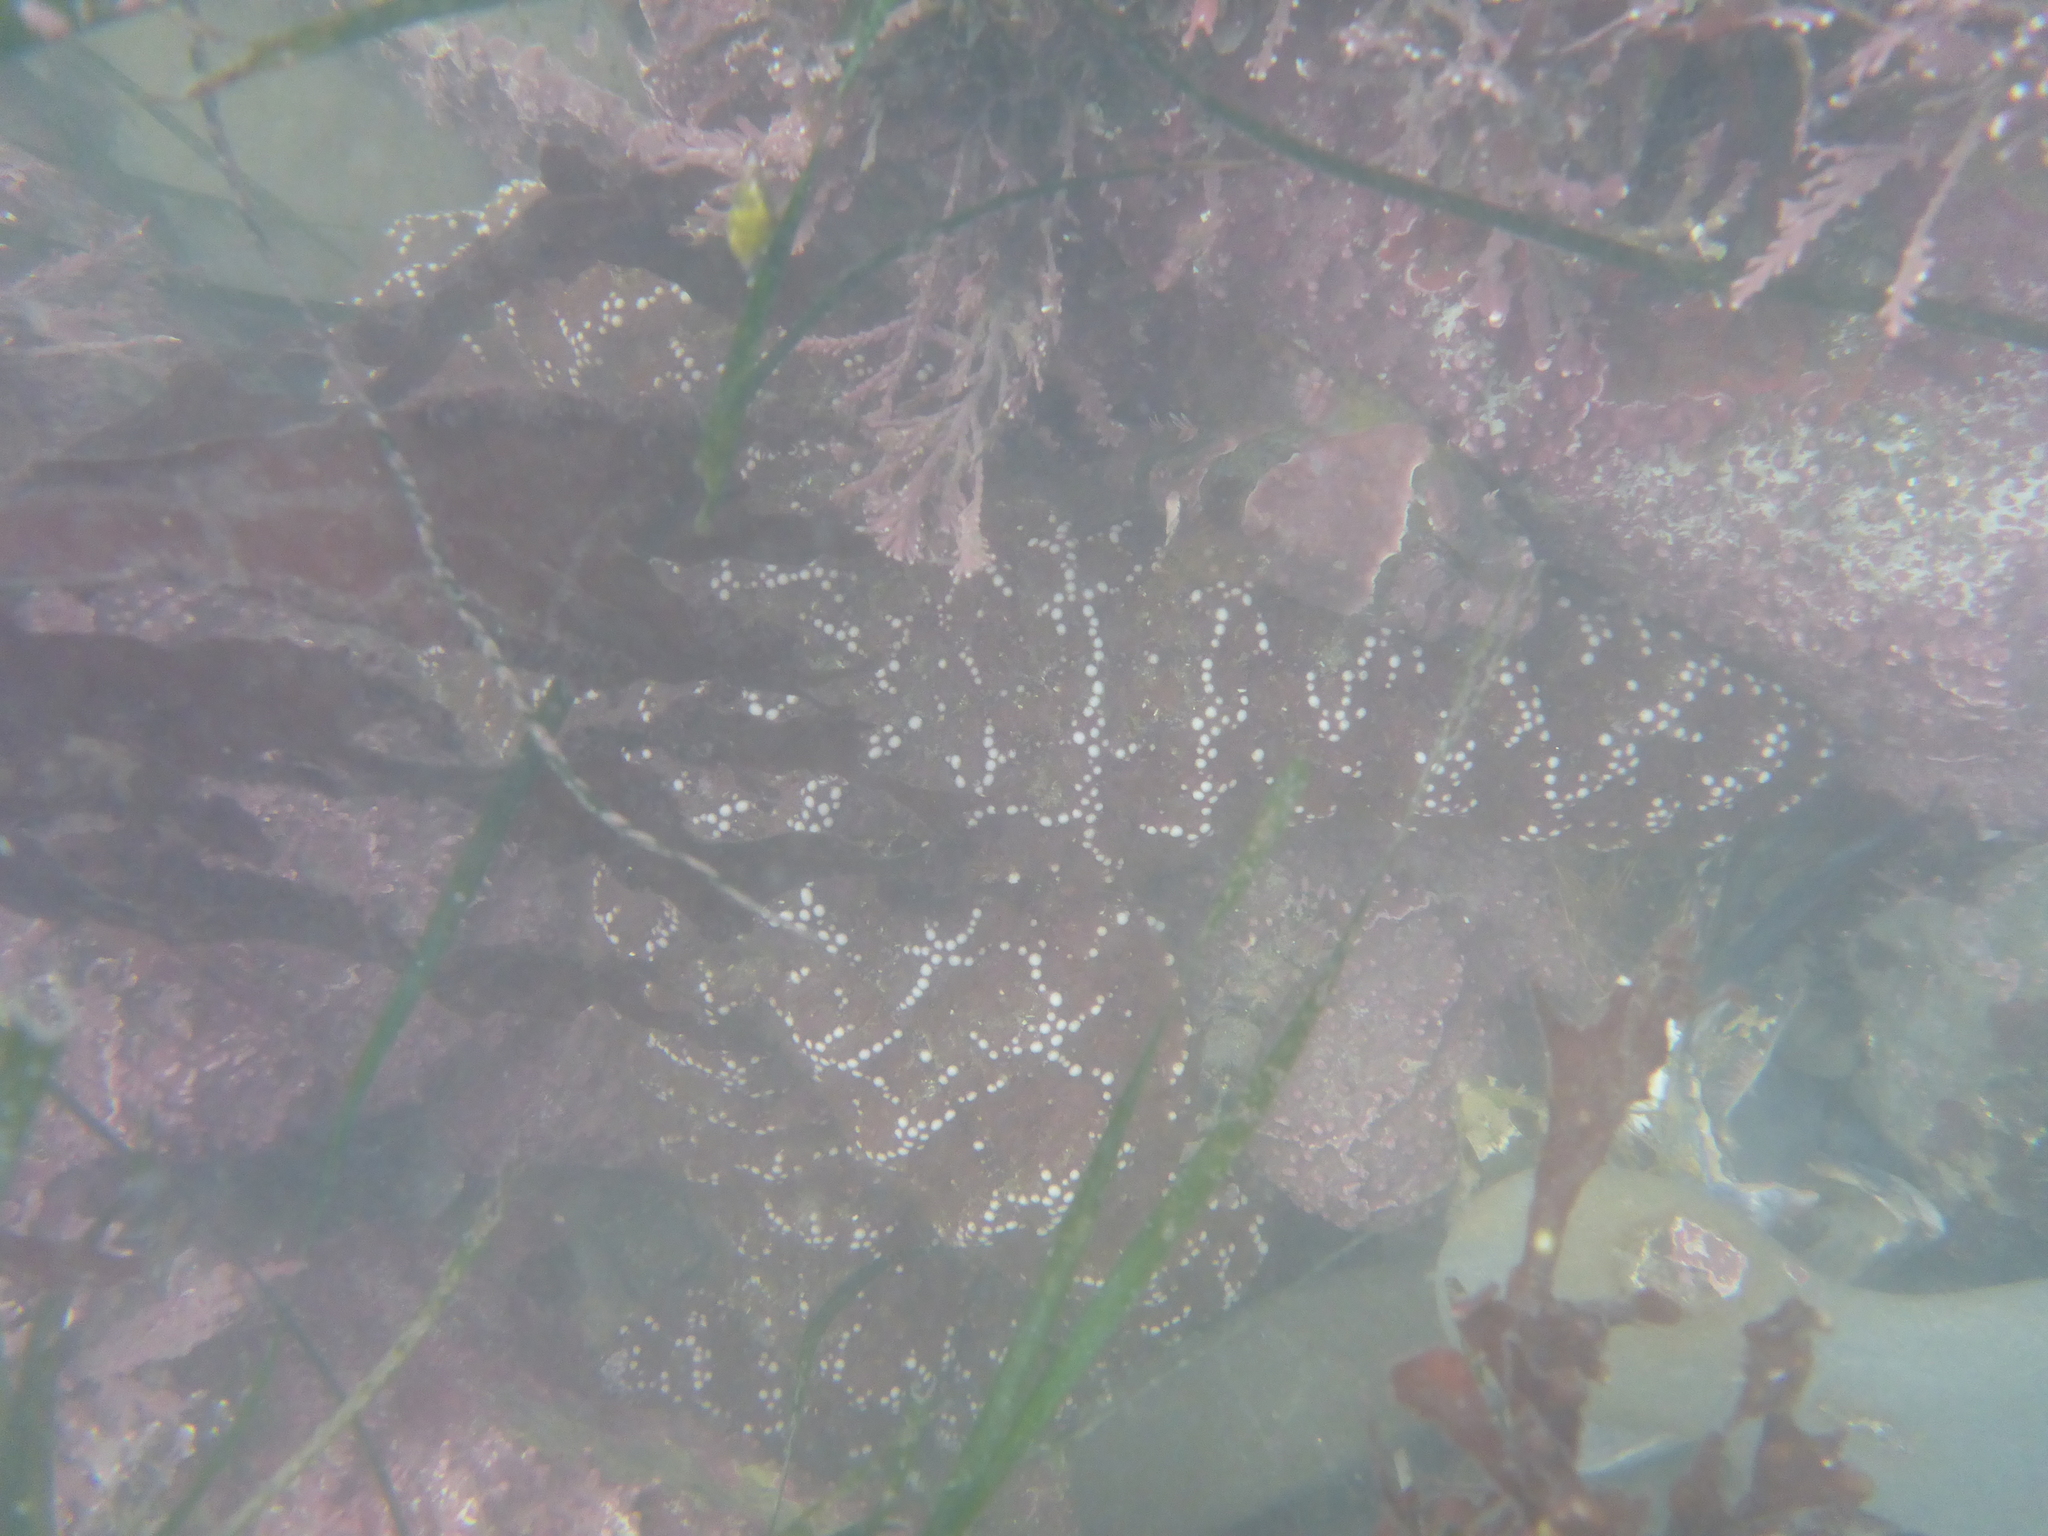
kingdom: Animalia
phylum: Echinodermata
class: Asteroidea
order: Forcipulatida
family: Asteriidae
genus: Pisaster
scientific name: Pisaster ochraceus
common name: Ochre stars
